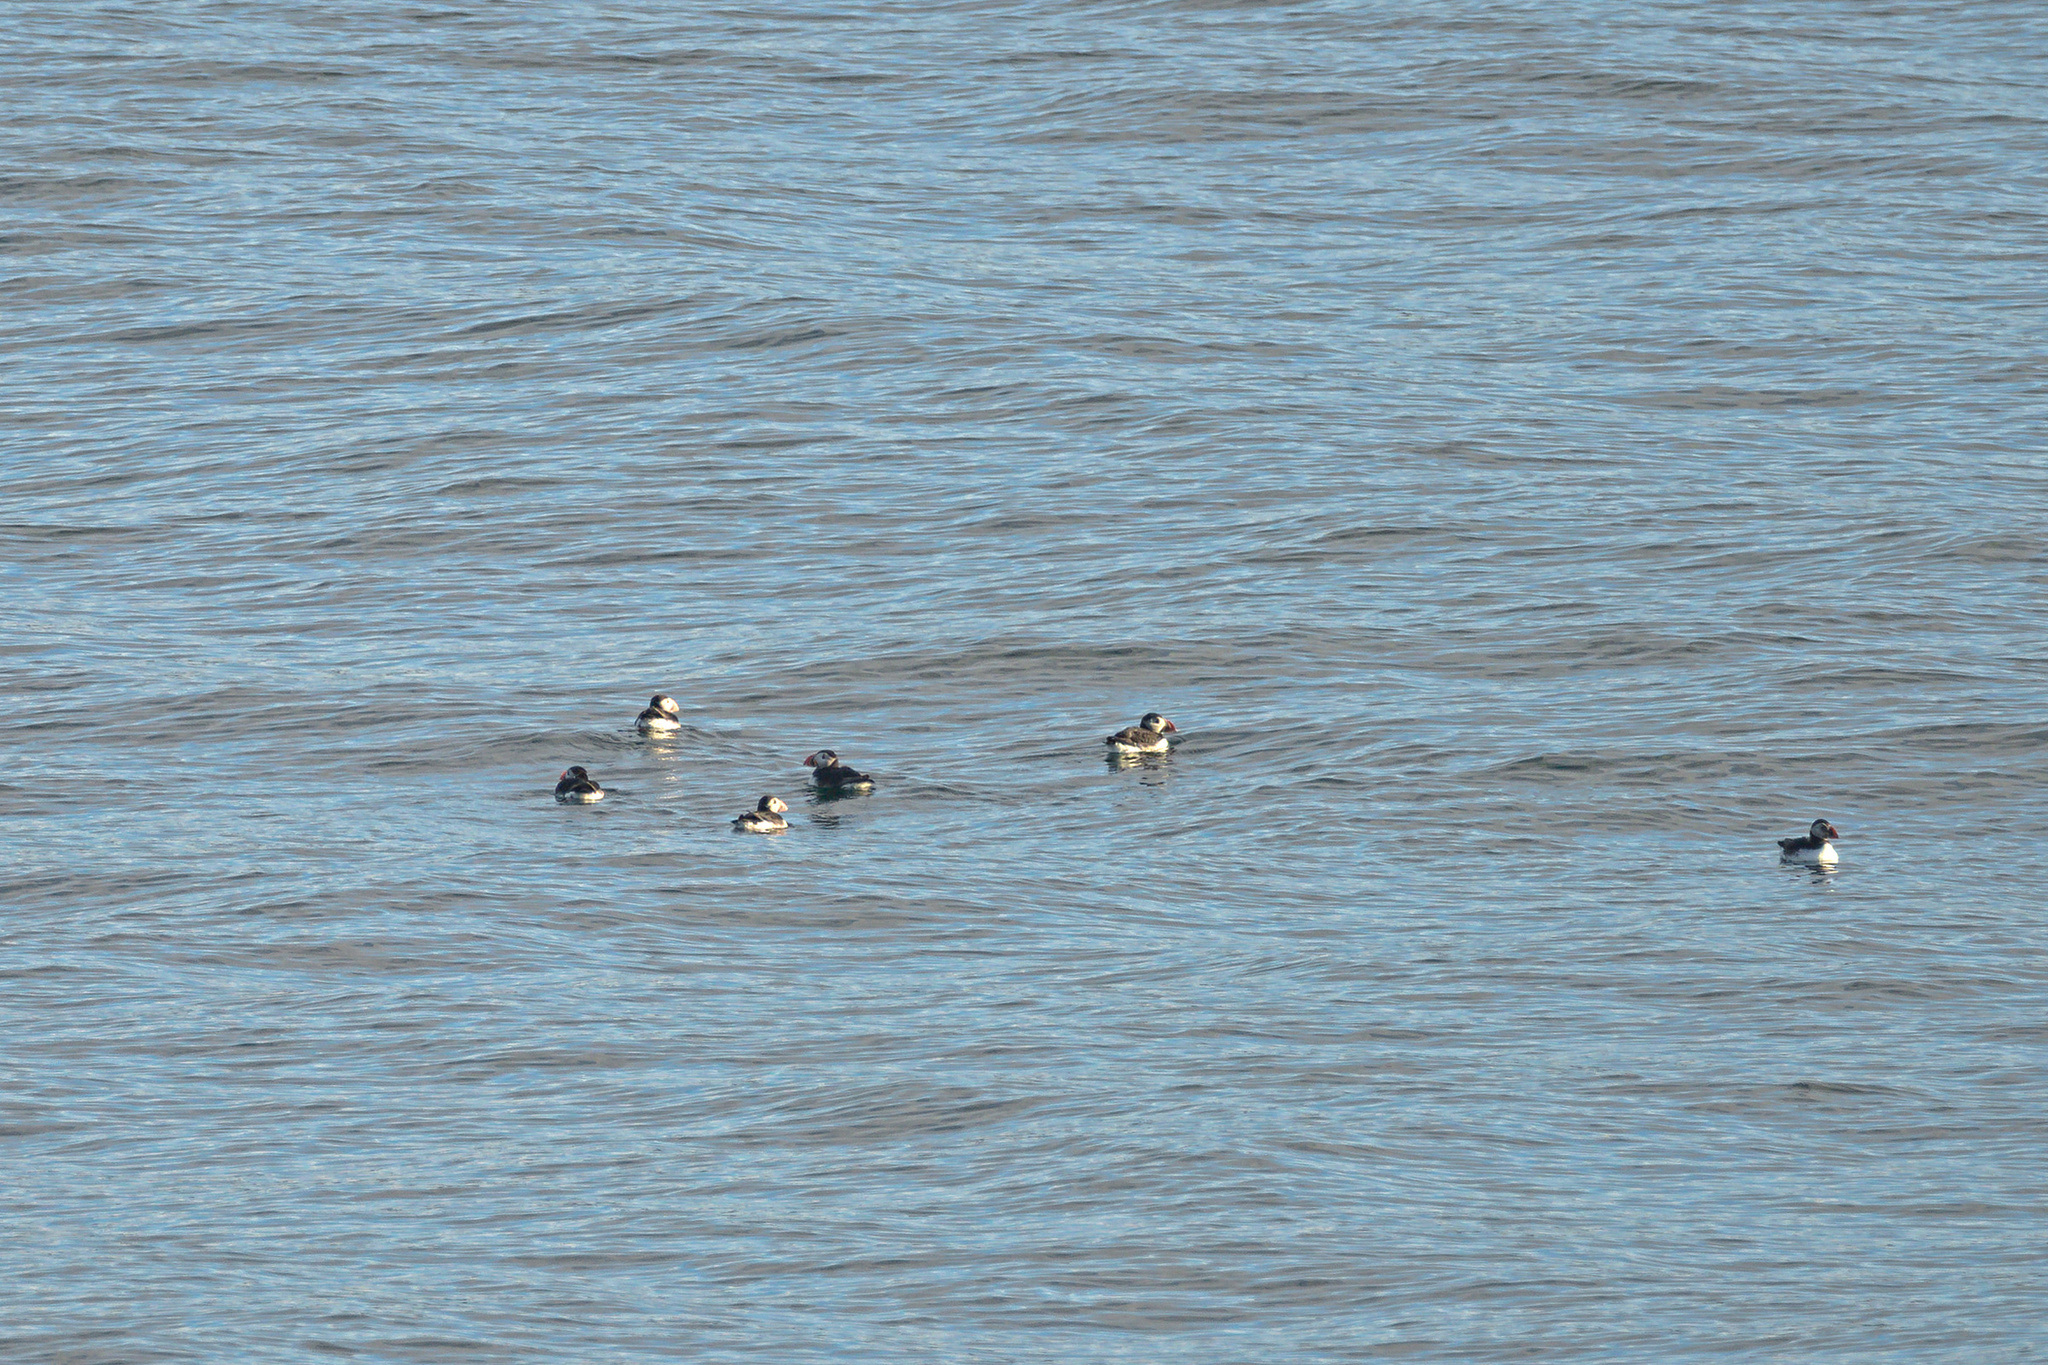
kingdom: Animalia
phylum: Chordata
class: Aves
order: Charadriiformes
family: Alcidae
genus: Fratercula
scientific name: Fratercula arctica
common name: Atlantic puffin
